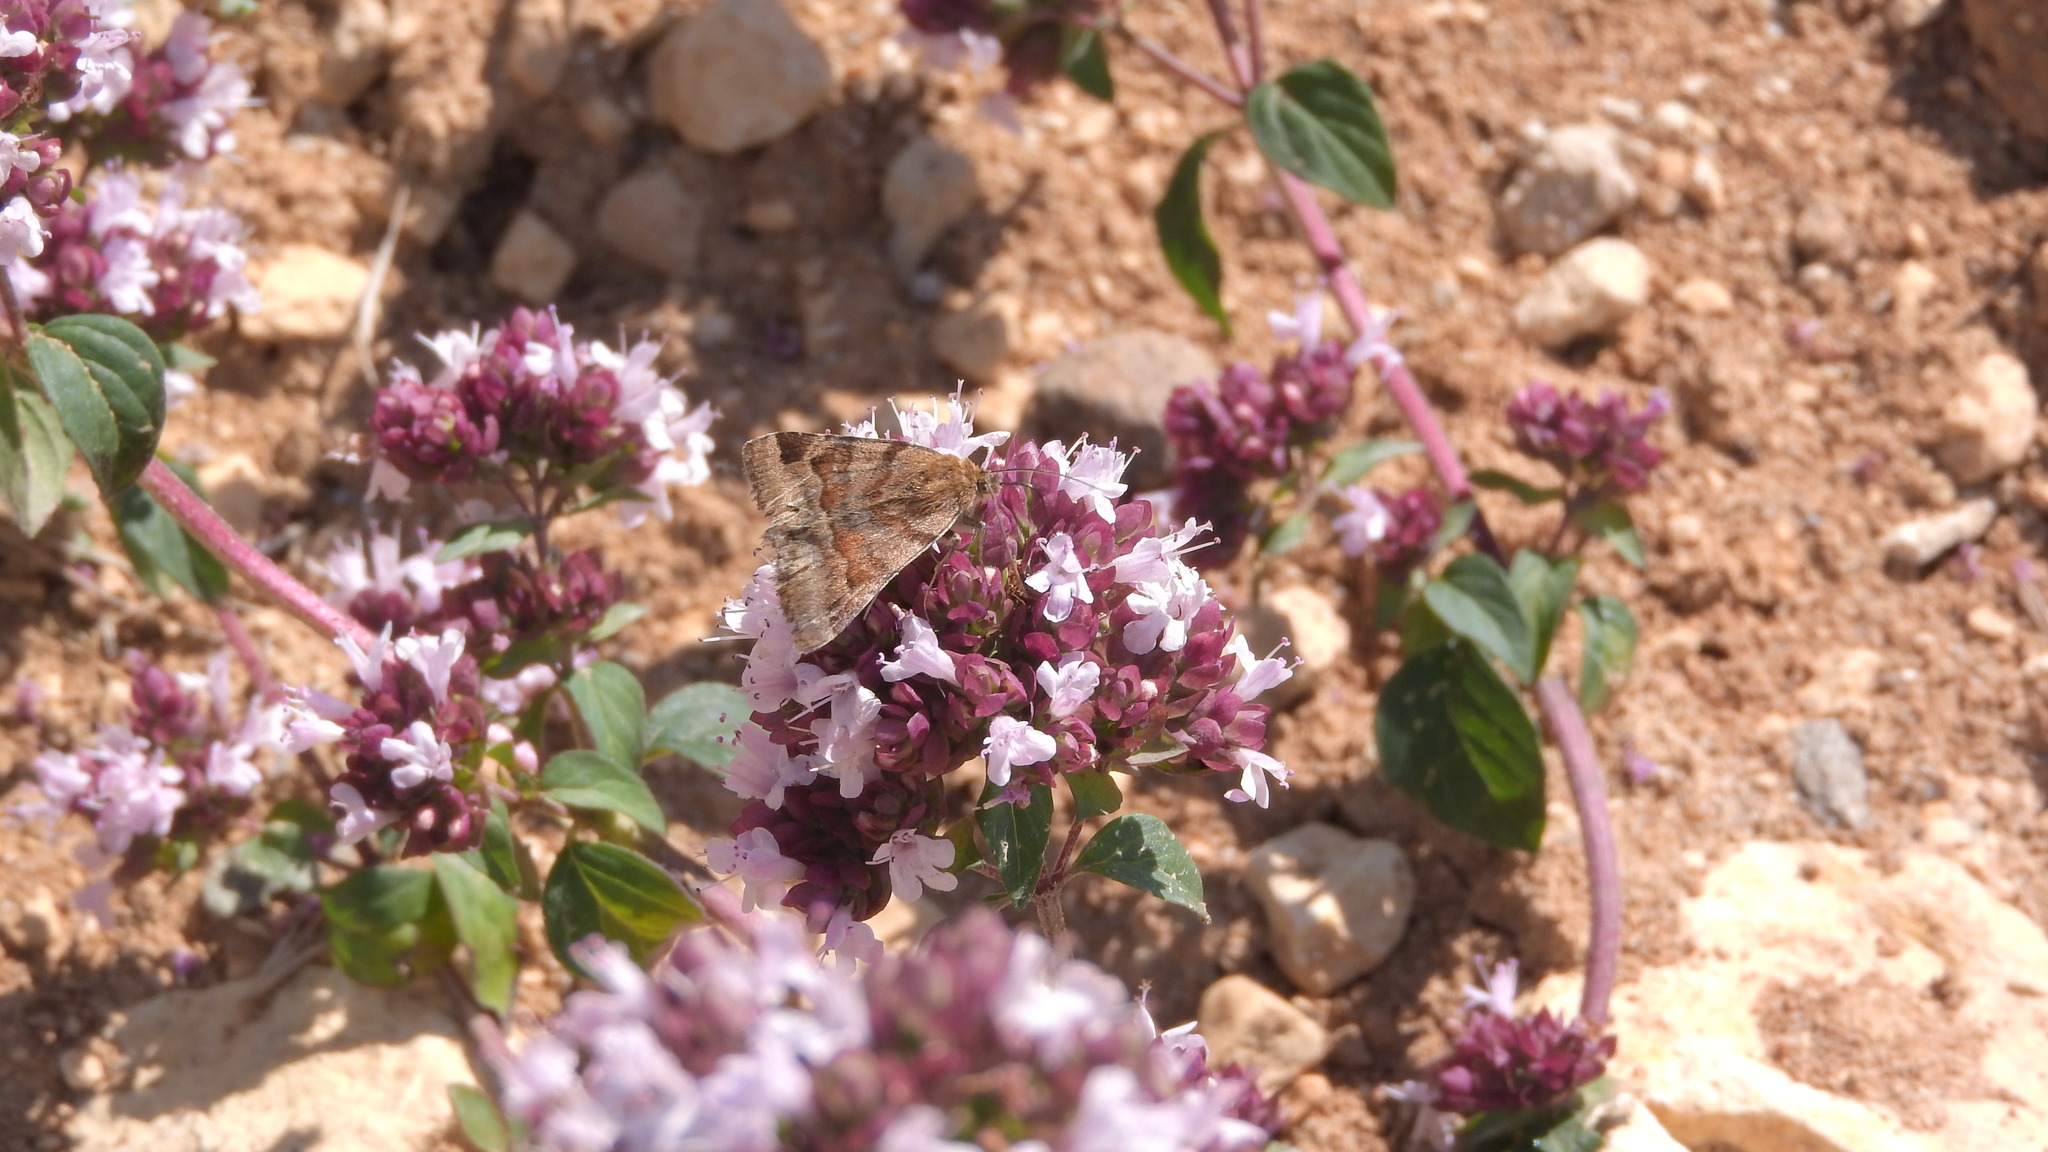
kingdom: Animalia
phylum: Arthropoda
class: Insecta
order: Lepidoptera
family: Erebidae
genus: Euclidia
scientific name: Euclidia glyphica
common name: Burnet companion
